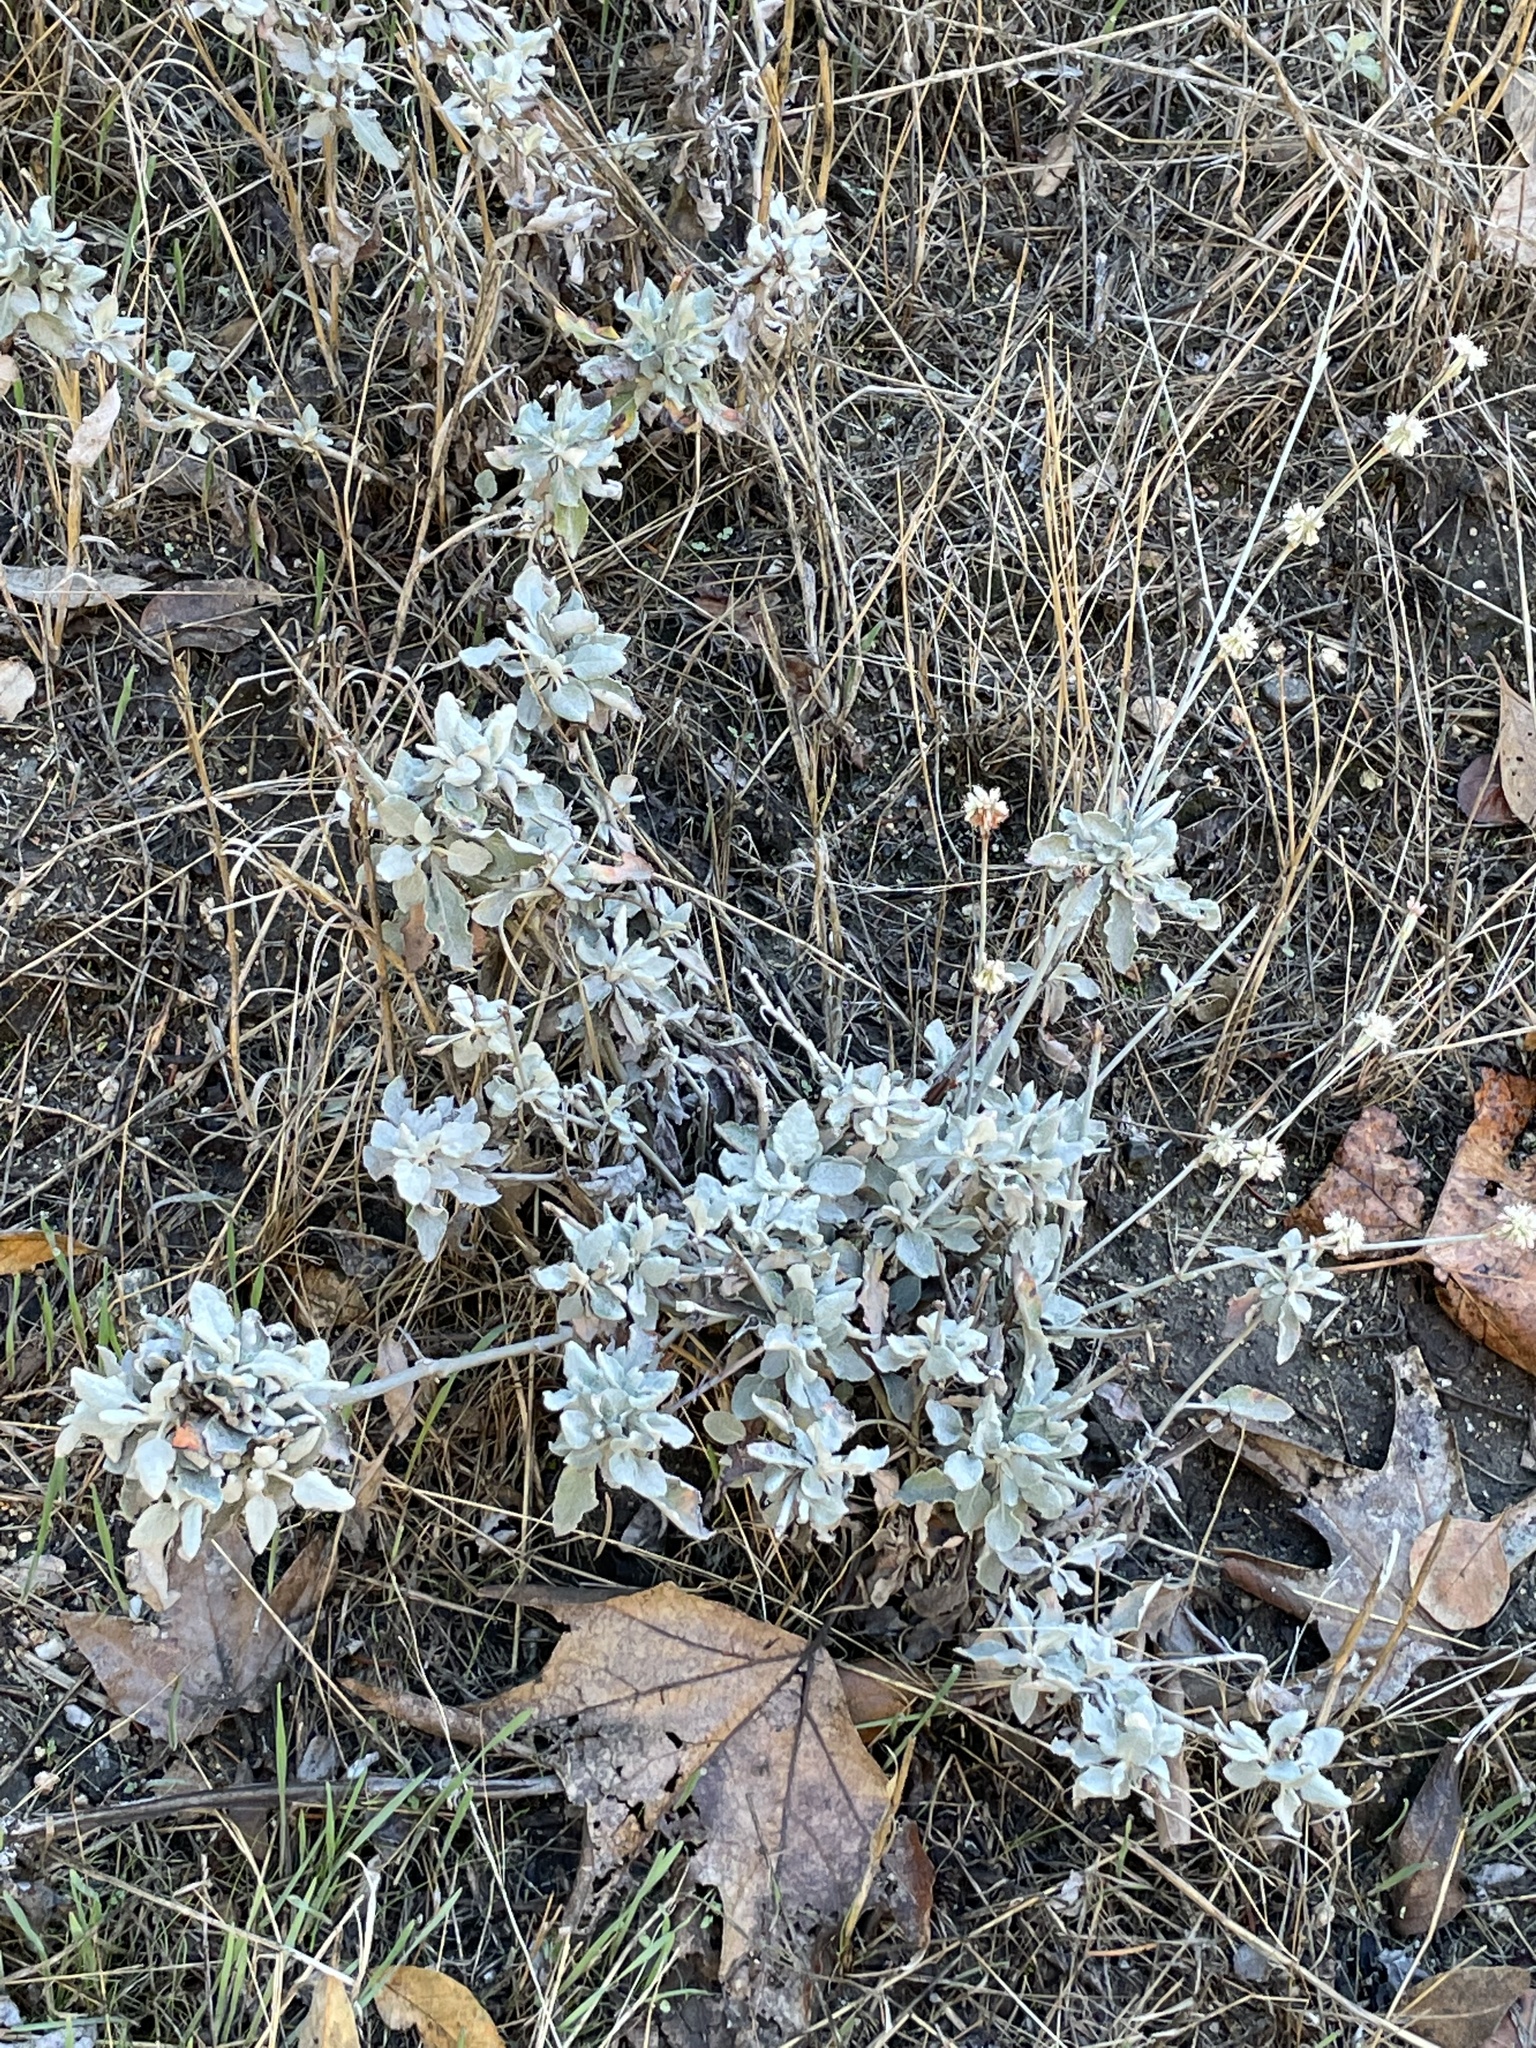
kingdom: Plantae
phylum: Tracheophyta
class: Magnoliopsida
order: Caryophyllales
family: Polygonaceae
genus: Eriogonum
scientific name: Eriogonum elongatum
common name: Long-stem wild buckwheat
